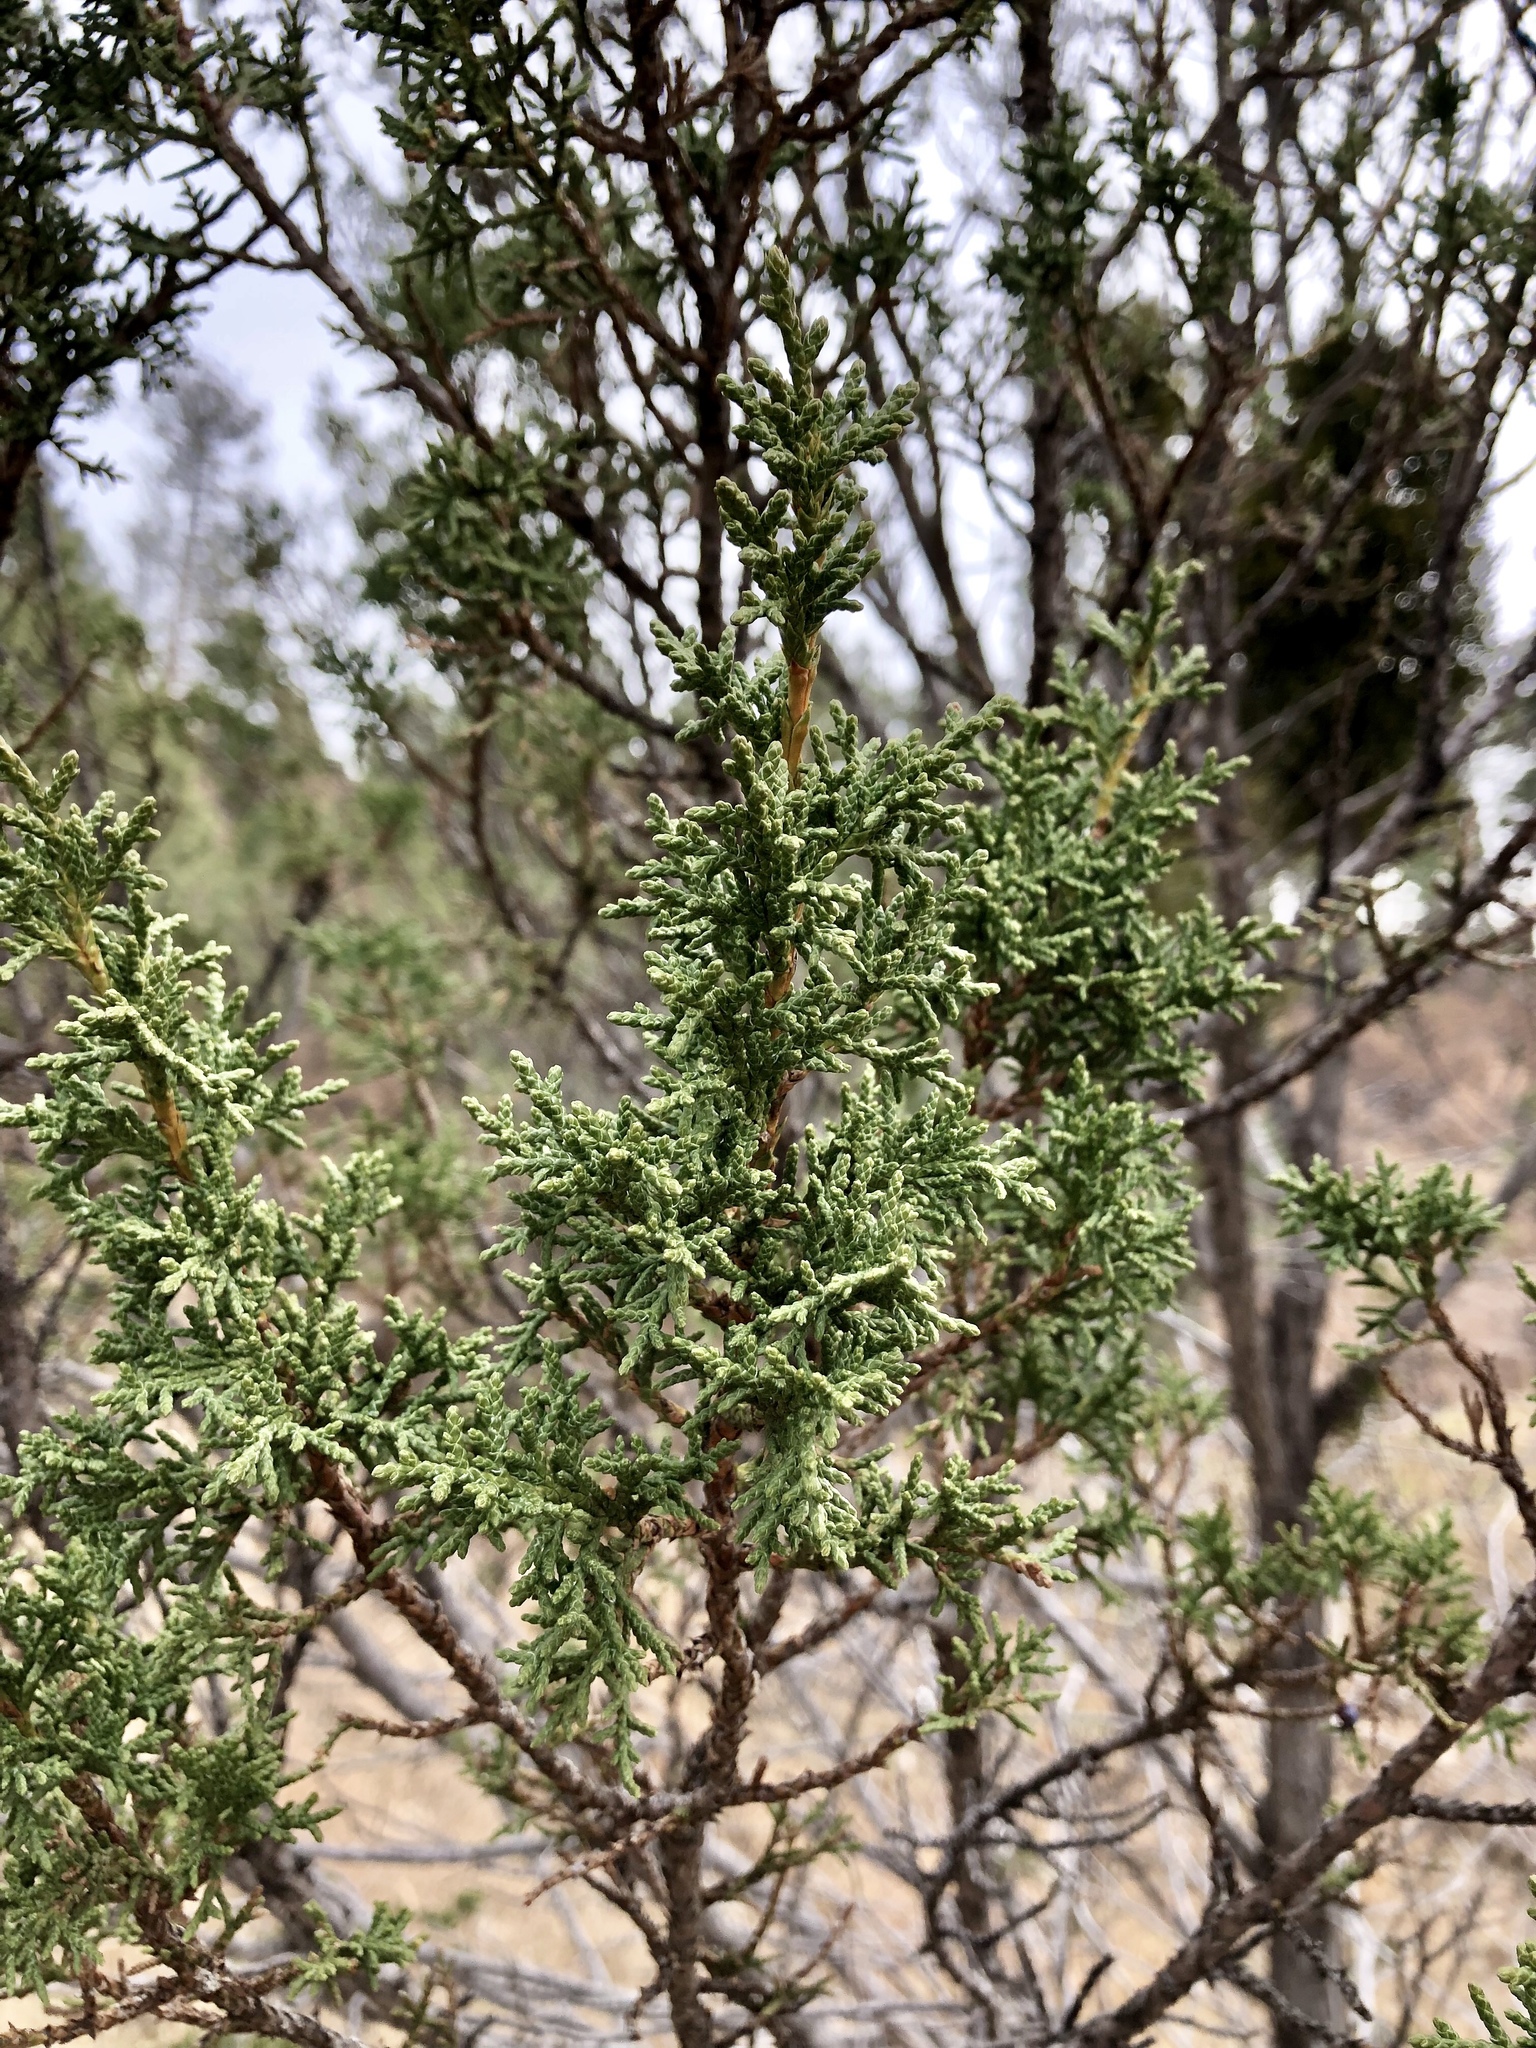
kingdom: Plantae
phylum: Tracheophyta
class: Pinopsida
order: Pinales
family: Cupressaceae
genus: Juniperus
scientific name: Juniperus monosperma
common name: One-seed juniper
